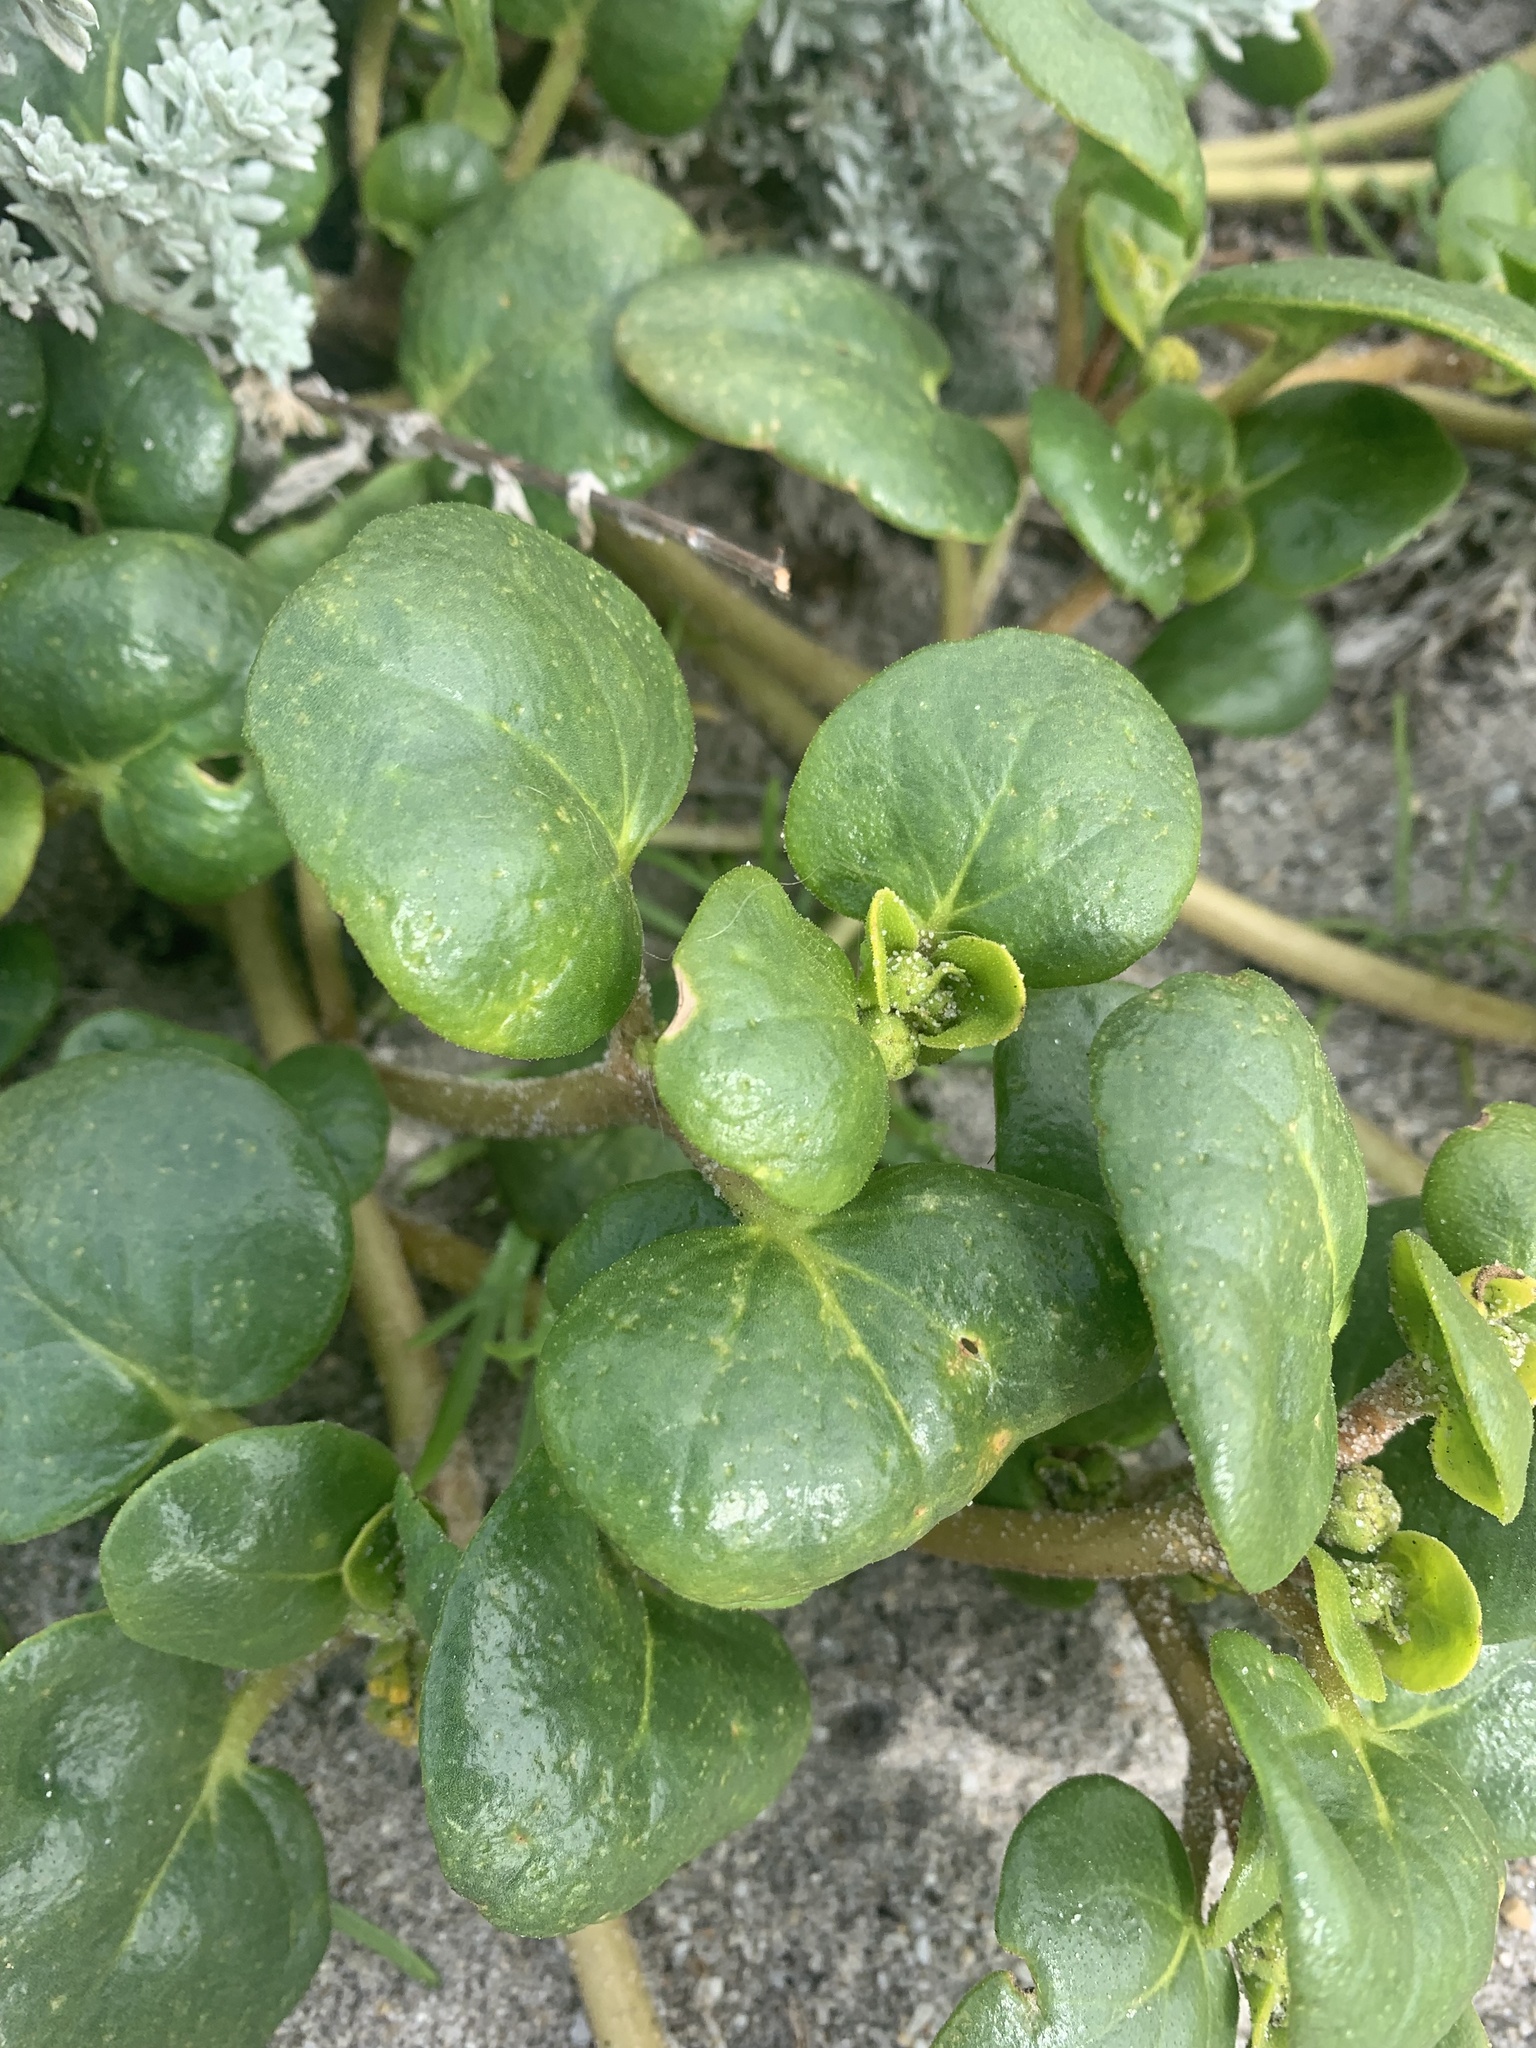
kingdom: Plantae
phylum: Tracheophyta
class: Magnoliopsida
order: Caryophyllales
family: Nyctaginaceae
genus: Abronia
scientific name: Abronia latifolia
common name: Yellow sand-verbena
